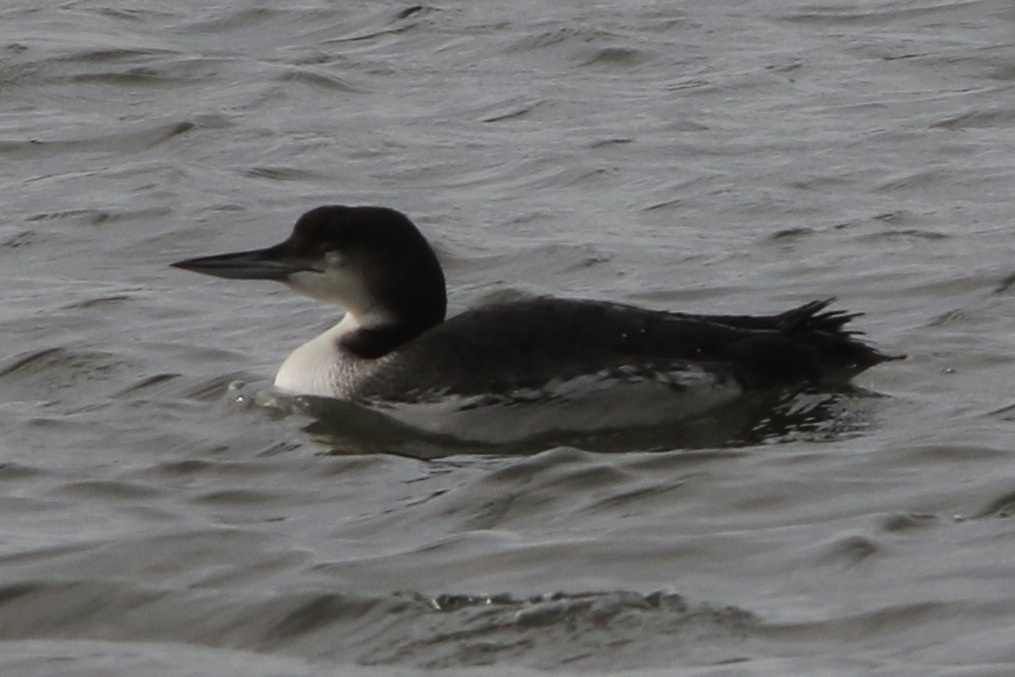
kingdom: Animalia
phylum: Chordata
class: Aves
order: Gaviiformes
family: Gaviidae
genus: Gavia
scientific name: Gavia immer
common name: Common loon
